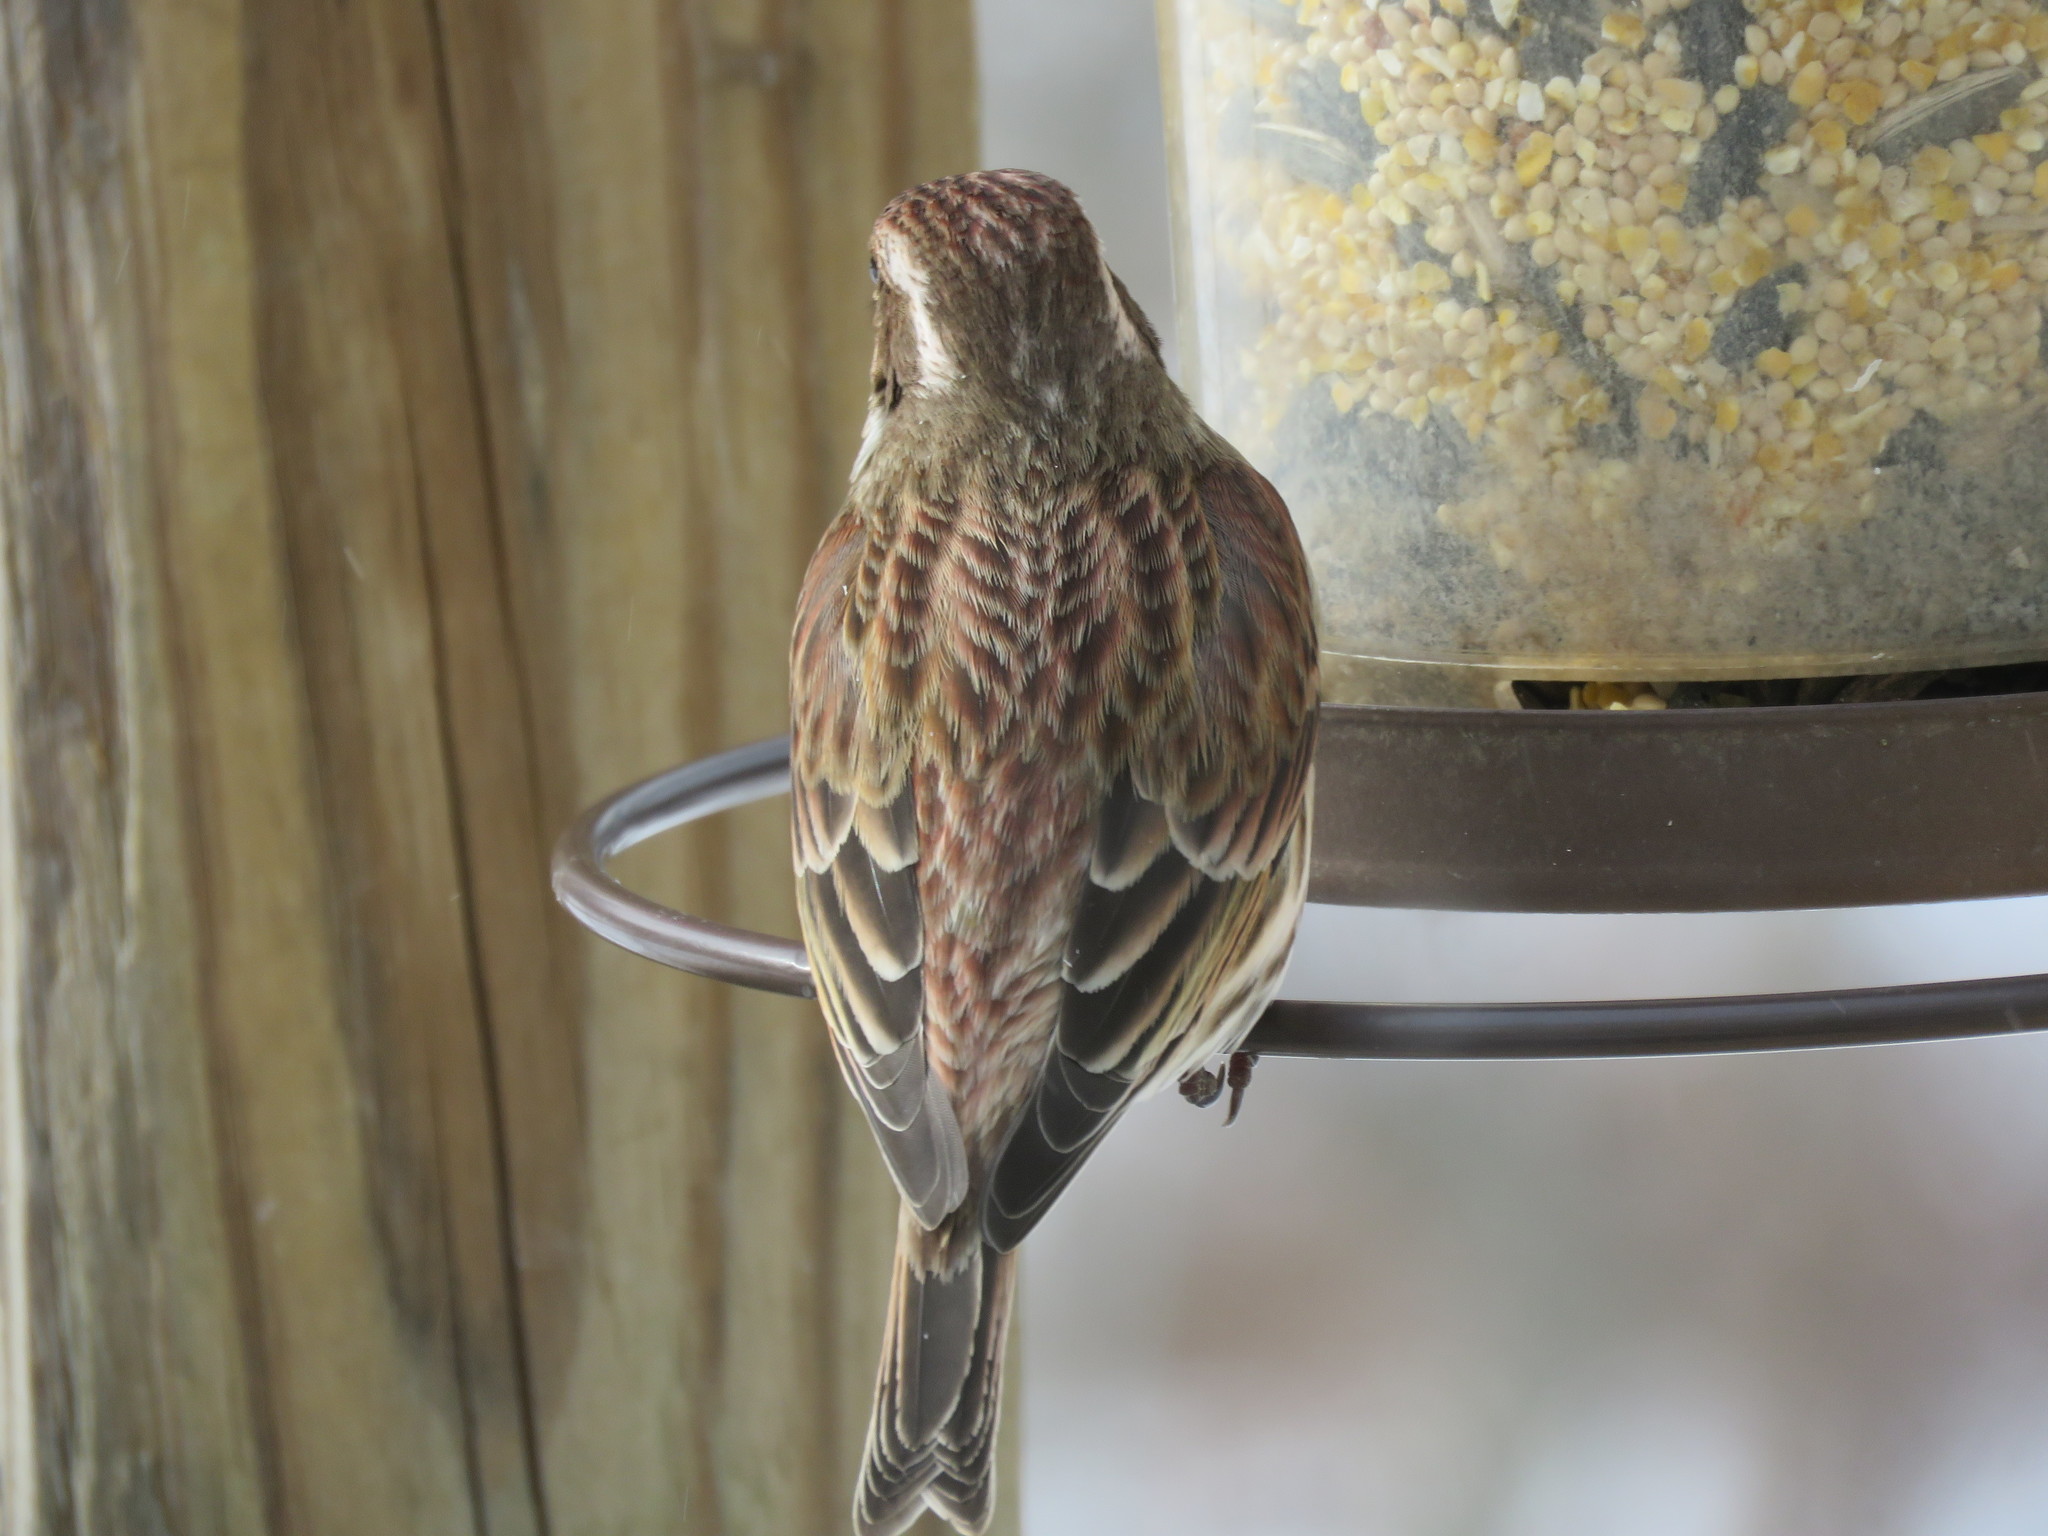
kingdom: Animalia
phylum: Chordata
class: Aves
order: Passeriformes
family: Fringillidae
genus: Haemorhous
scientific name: Haemorhous purpureus
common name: Purple finch
